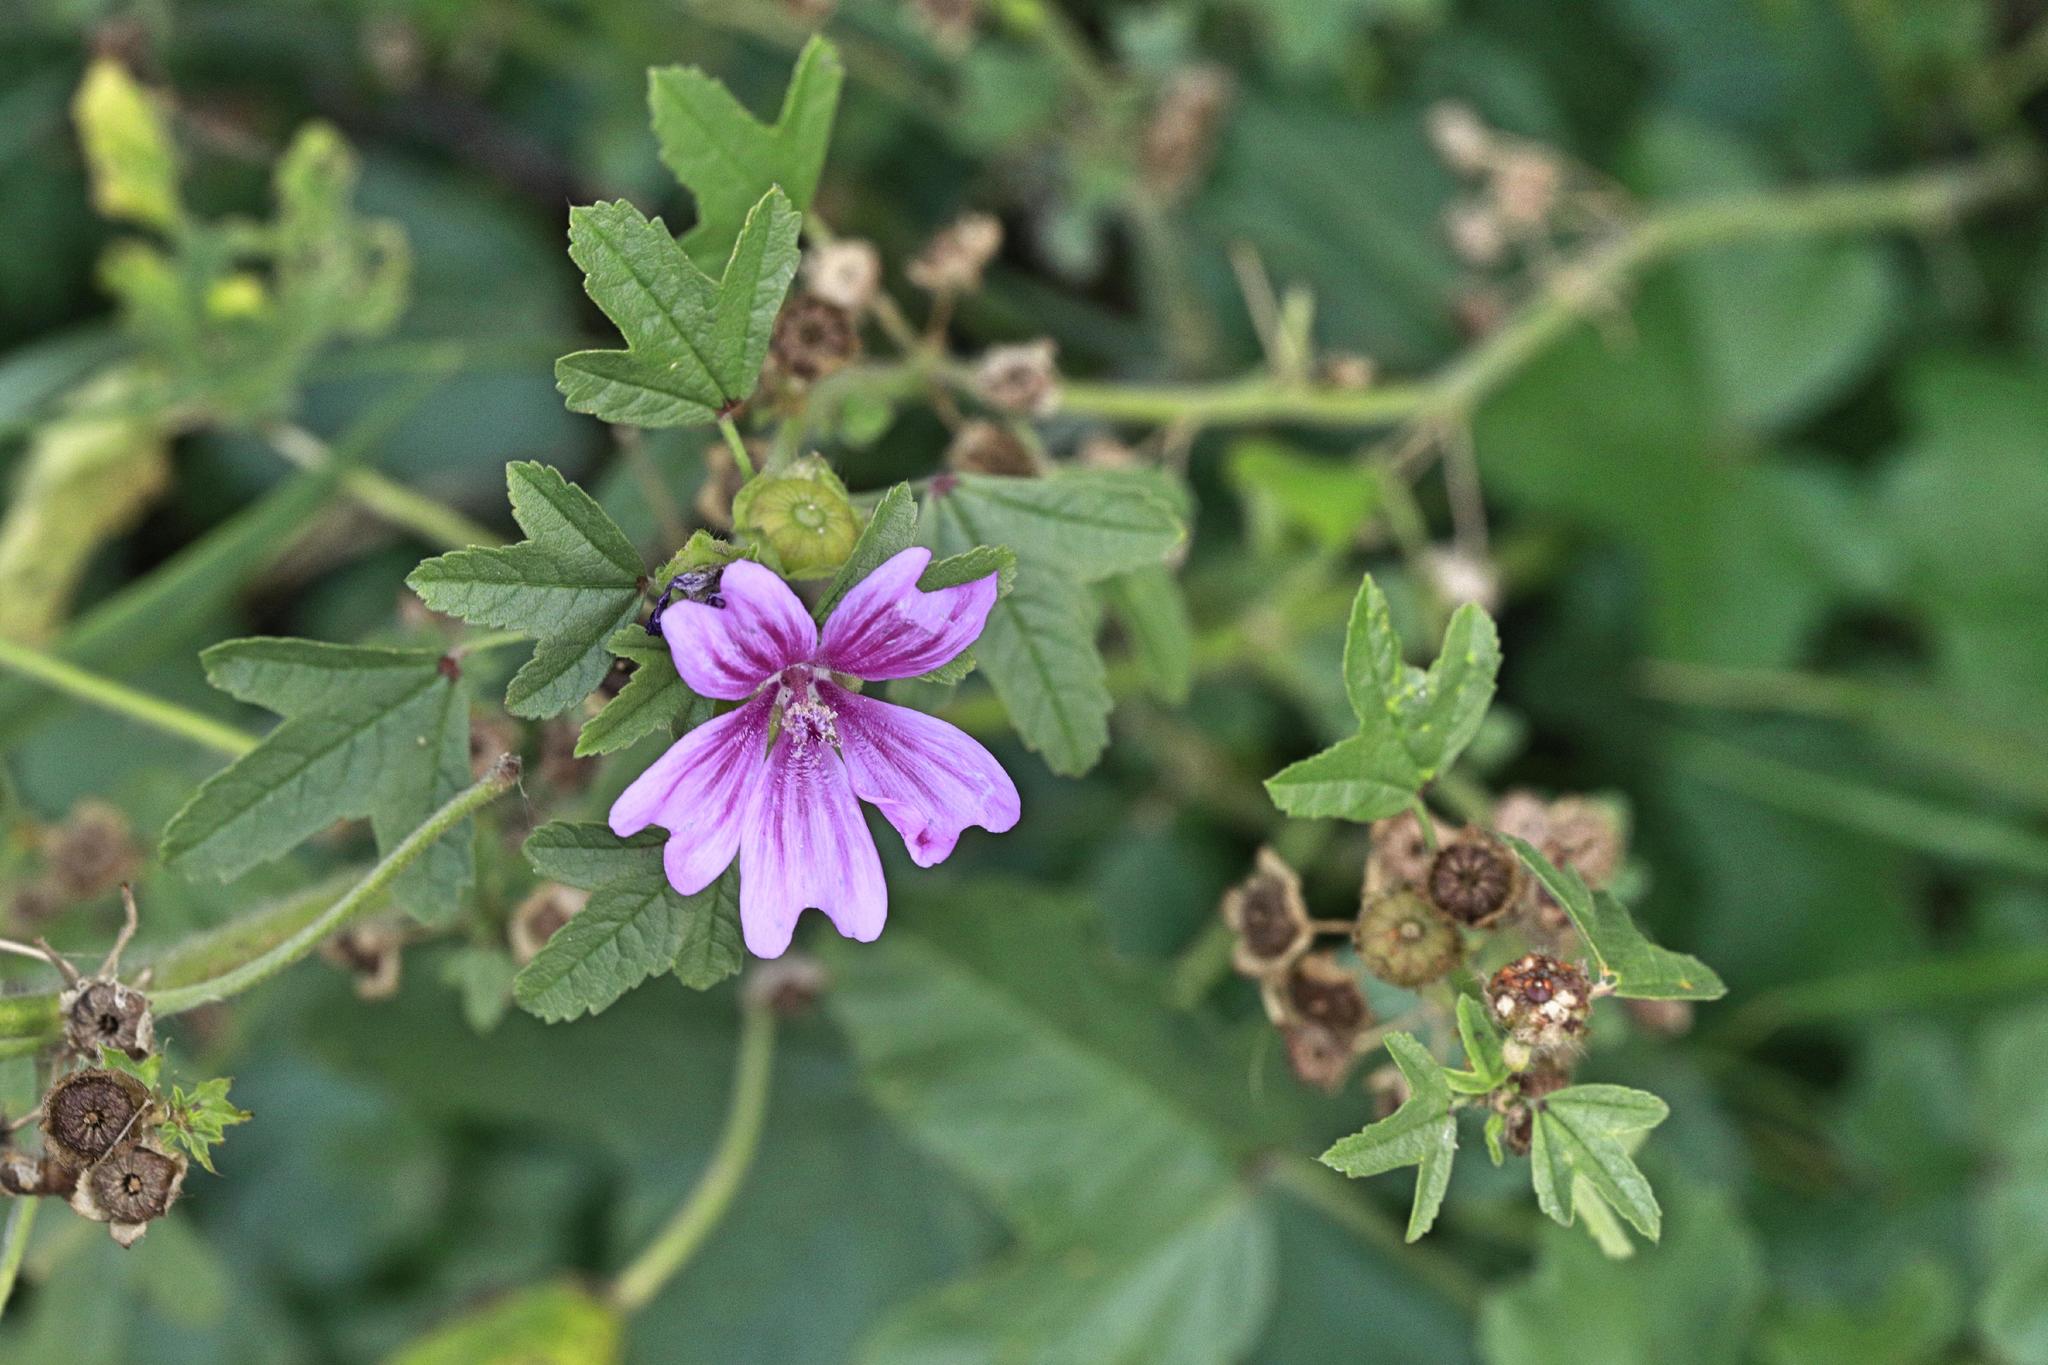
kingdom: Plantae
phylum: Tracheophyta
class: Magnoliopsida
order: Malvales
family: Malvaceae
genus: Malva
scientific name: Malva sylvestris
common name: Common mallow
